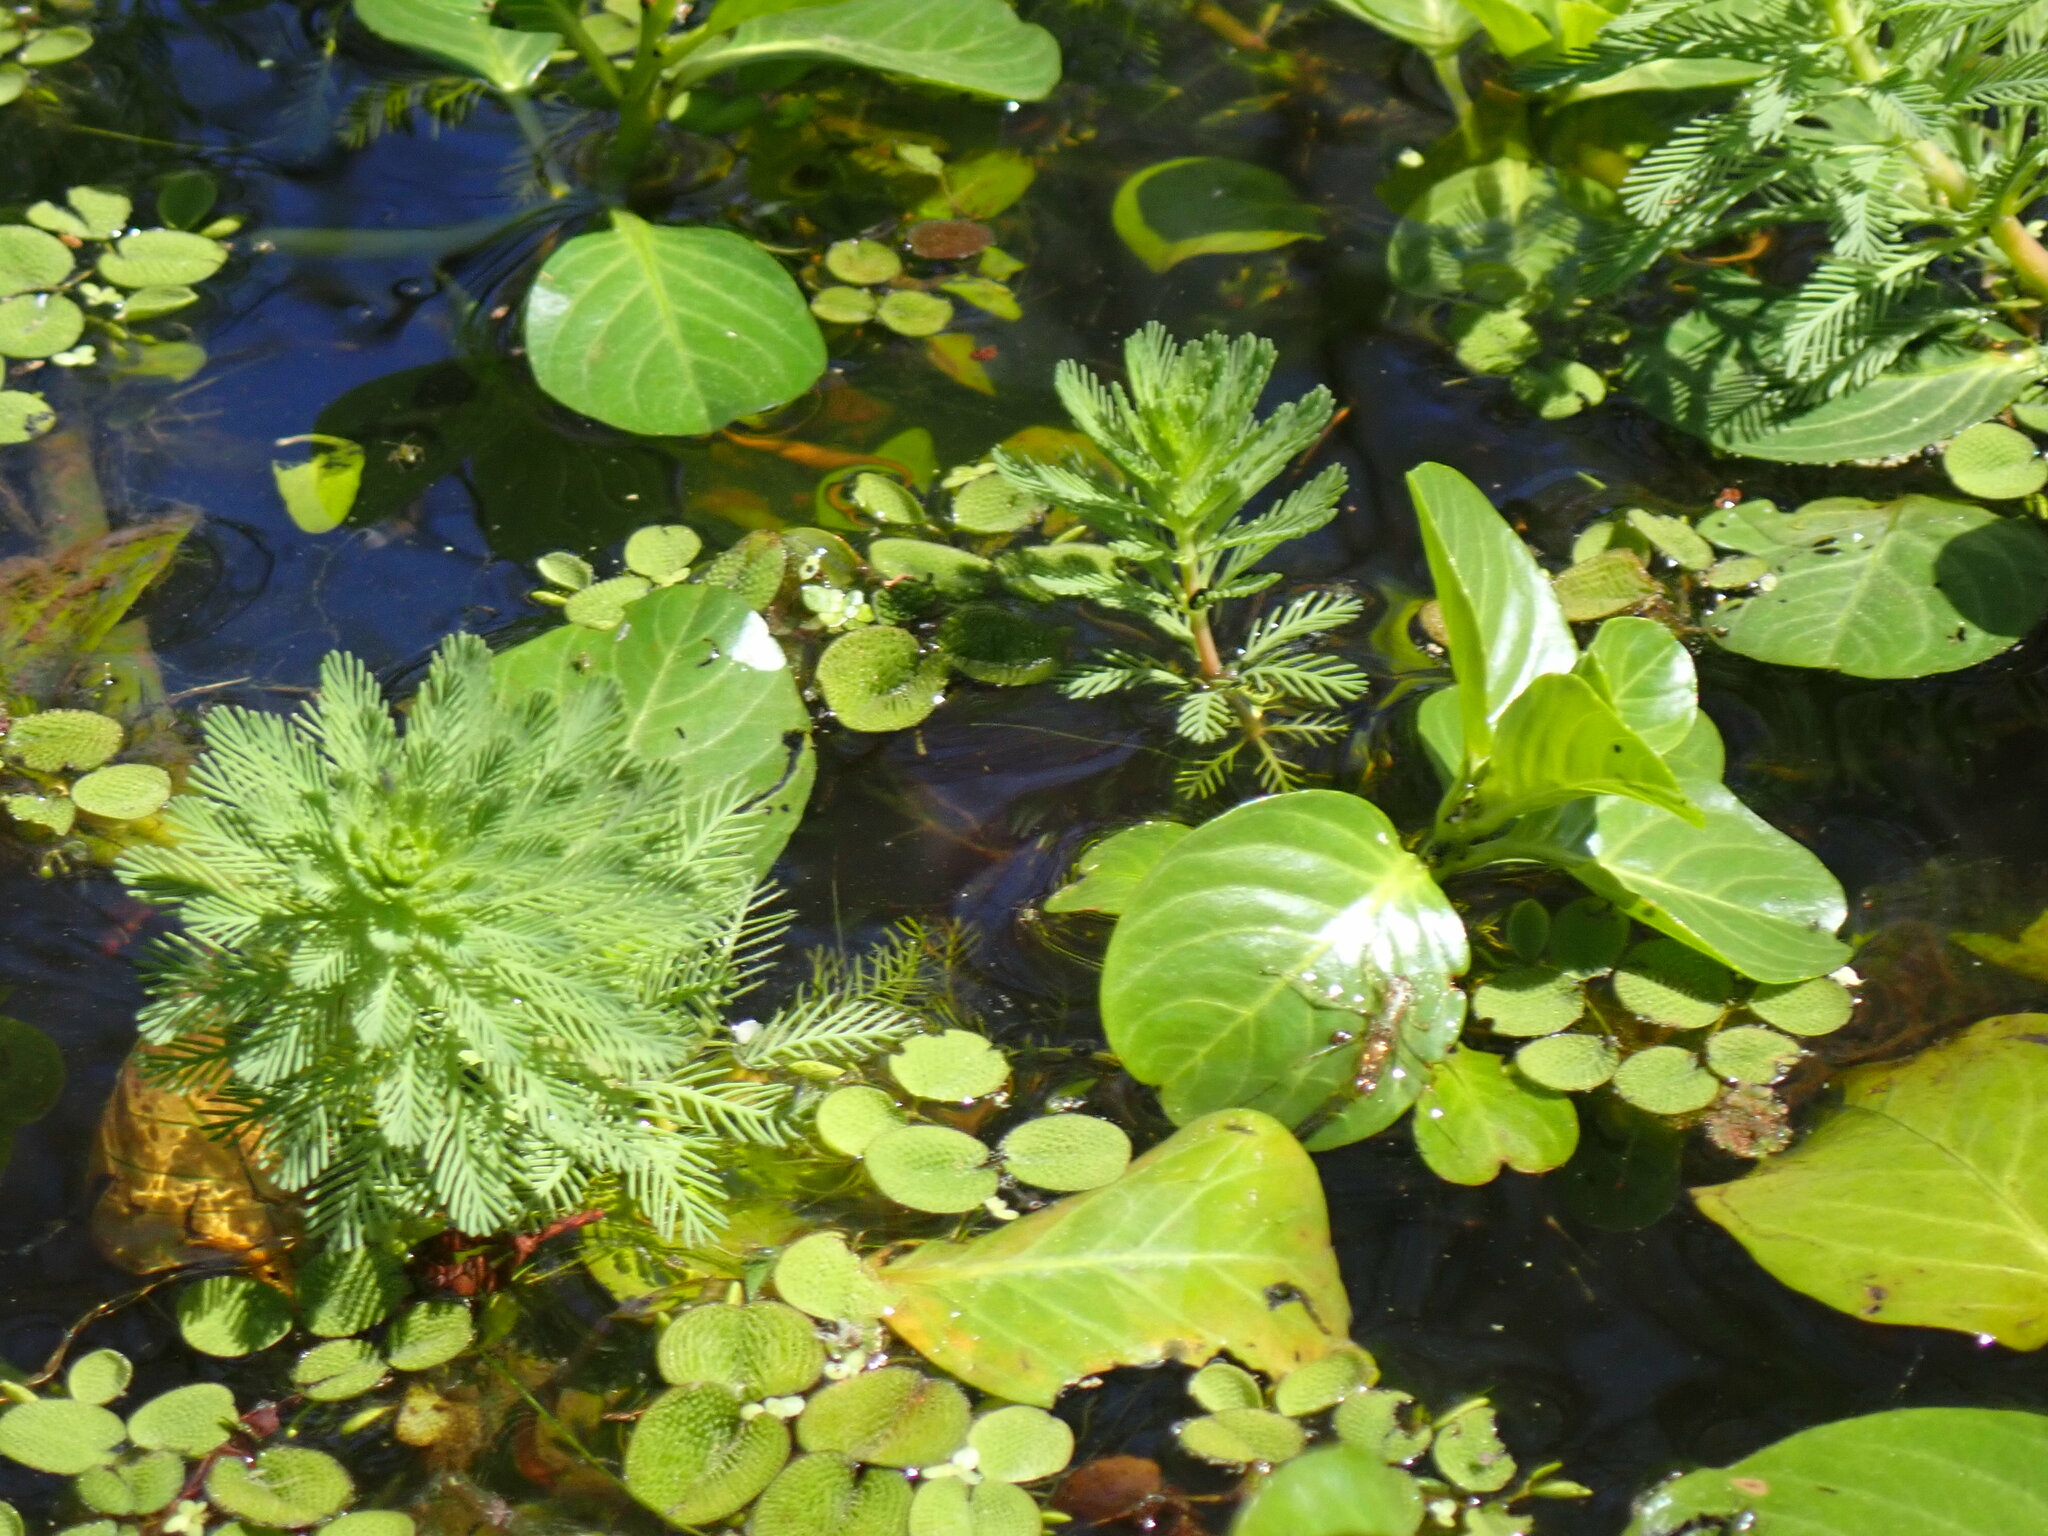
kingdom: Plantae
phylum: Tracheophyta
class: Magnoliopsida
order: Saxifragales
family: Haloragaceae
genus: Myriophyllum
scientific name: Myriophyllum aquaticum
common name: Parrot's feather
